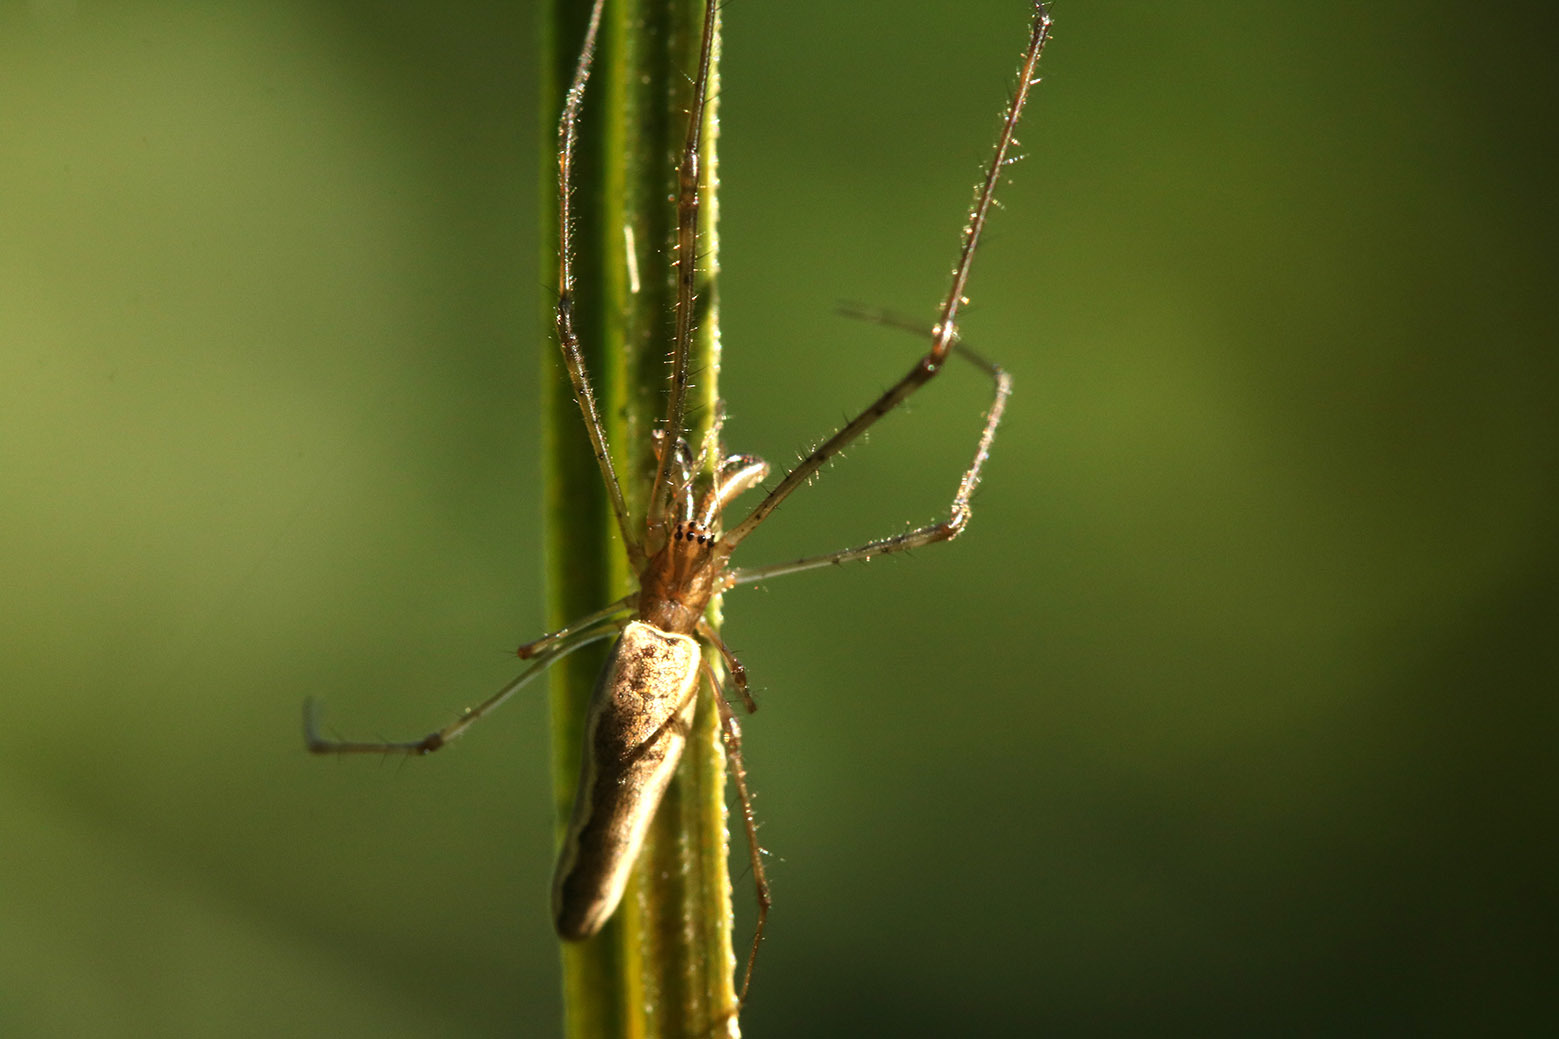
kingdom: Animalia
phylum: Arthropoda
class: Arachnida
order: Araneae
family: Tetragnathidae
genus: Tetragnatha
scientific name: Tetragnatha
